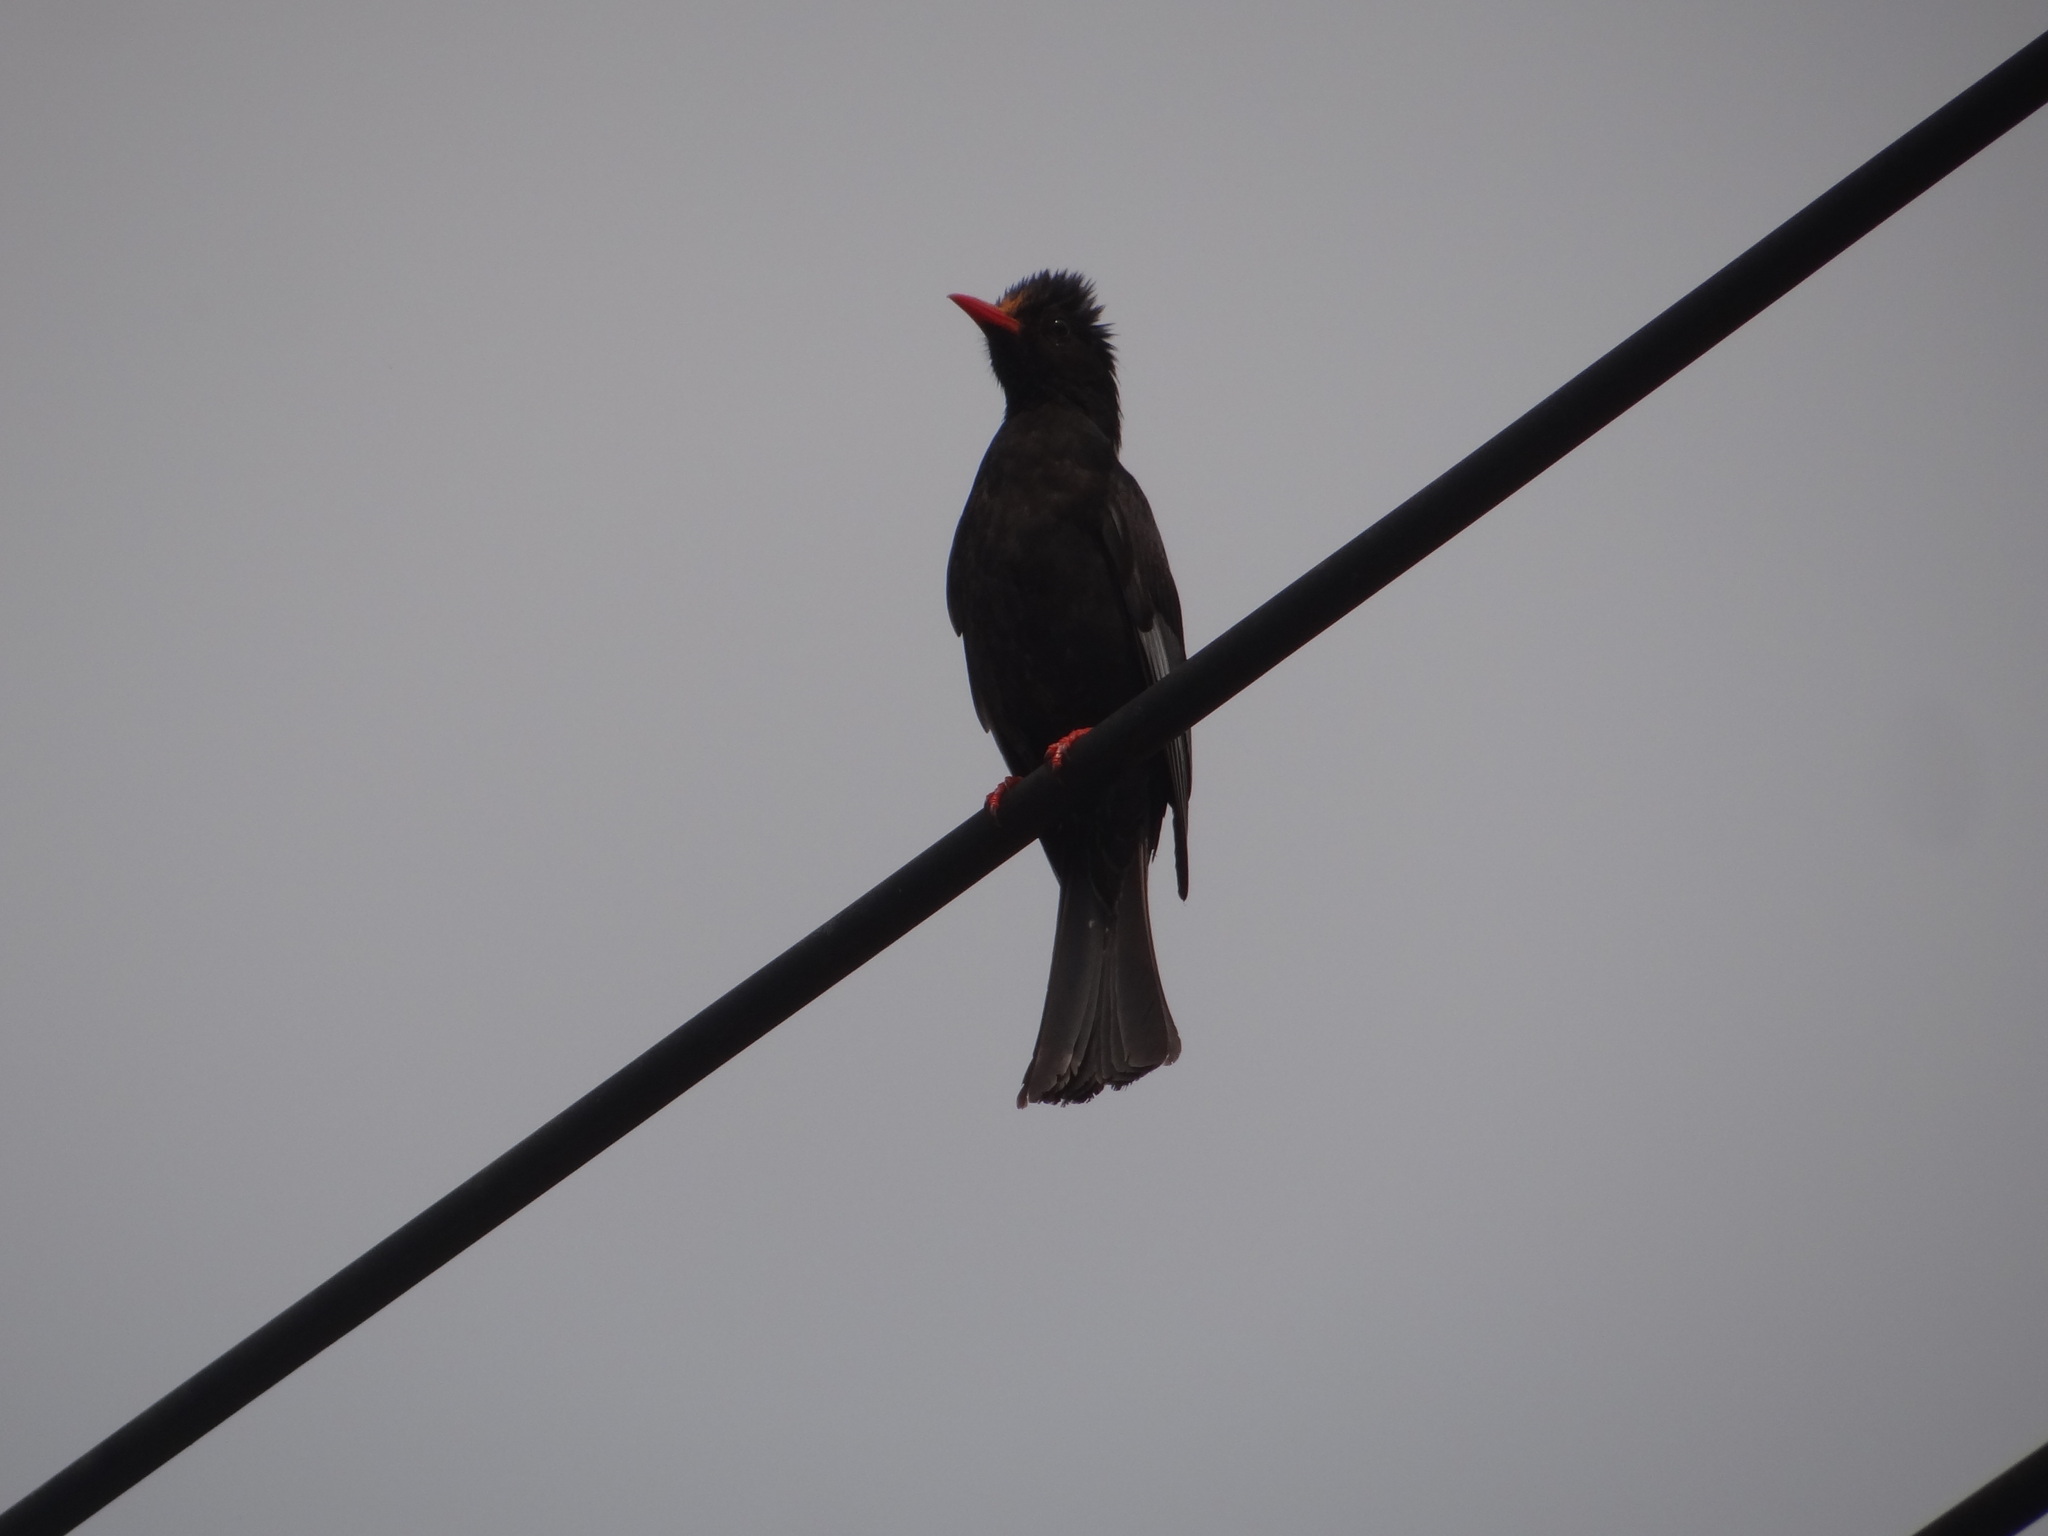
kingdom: Animalia
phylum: Chordata
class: Aves
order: Passeriformes
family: Pycnonotidae
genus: Hypsipetes
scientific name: Hypsipetes leucocephalus
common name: Black bulbul
